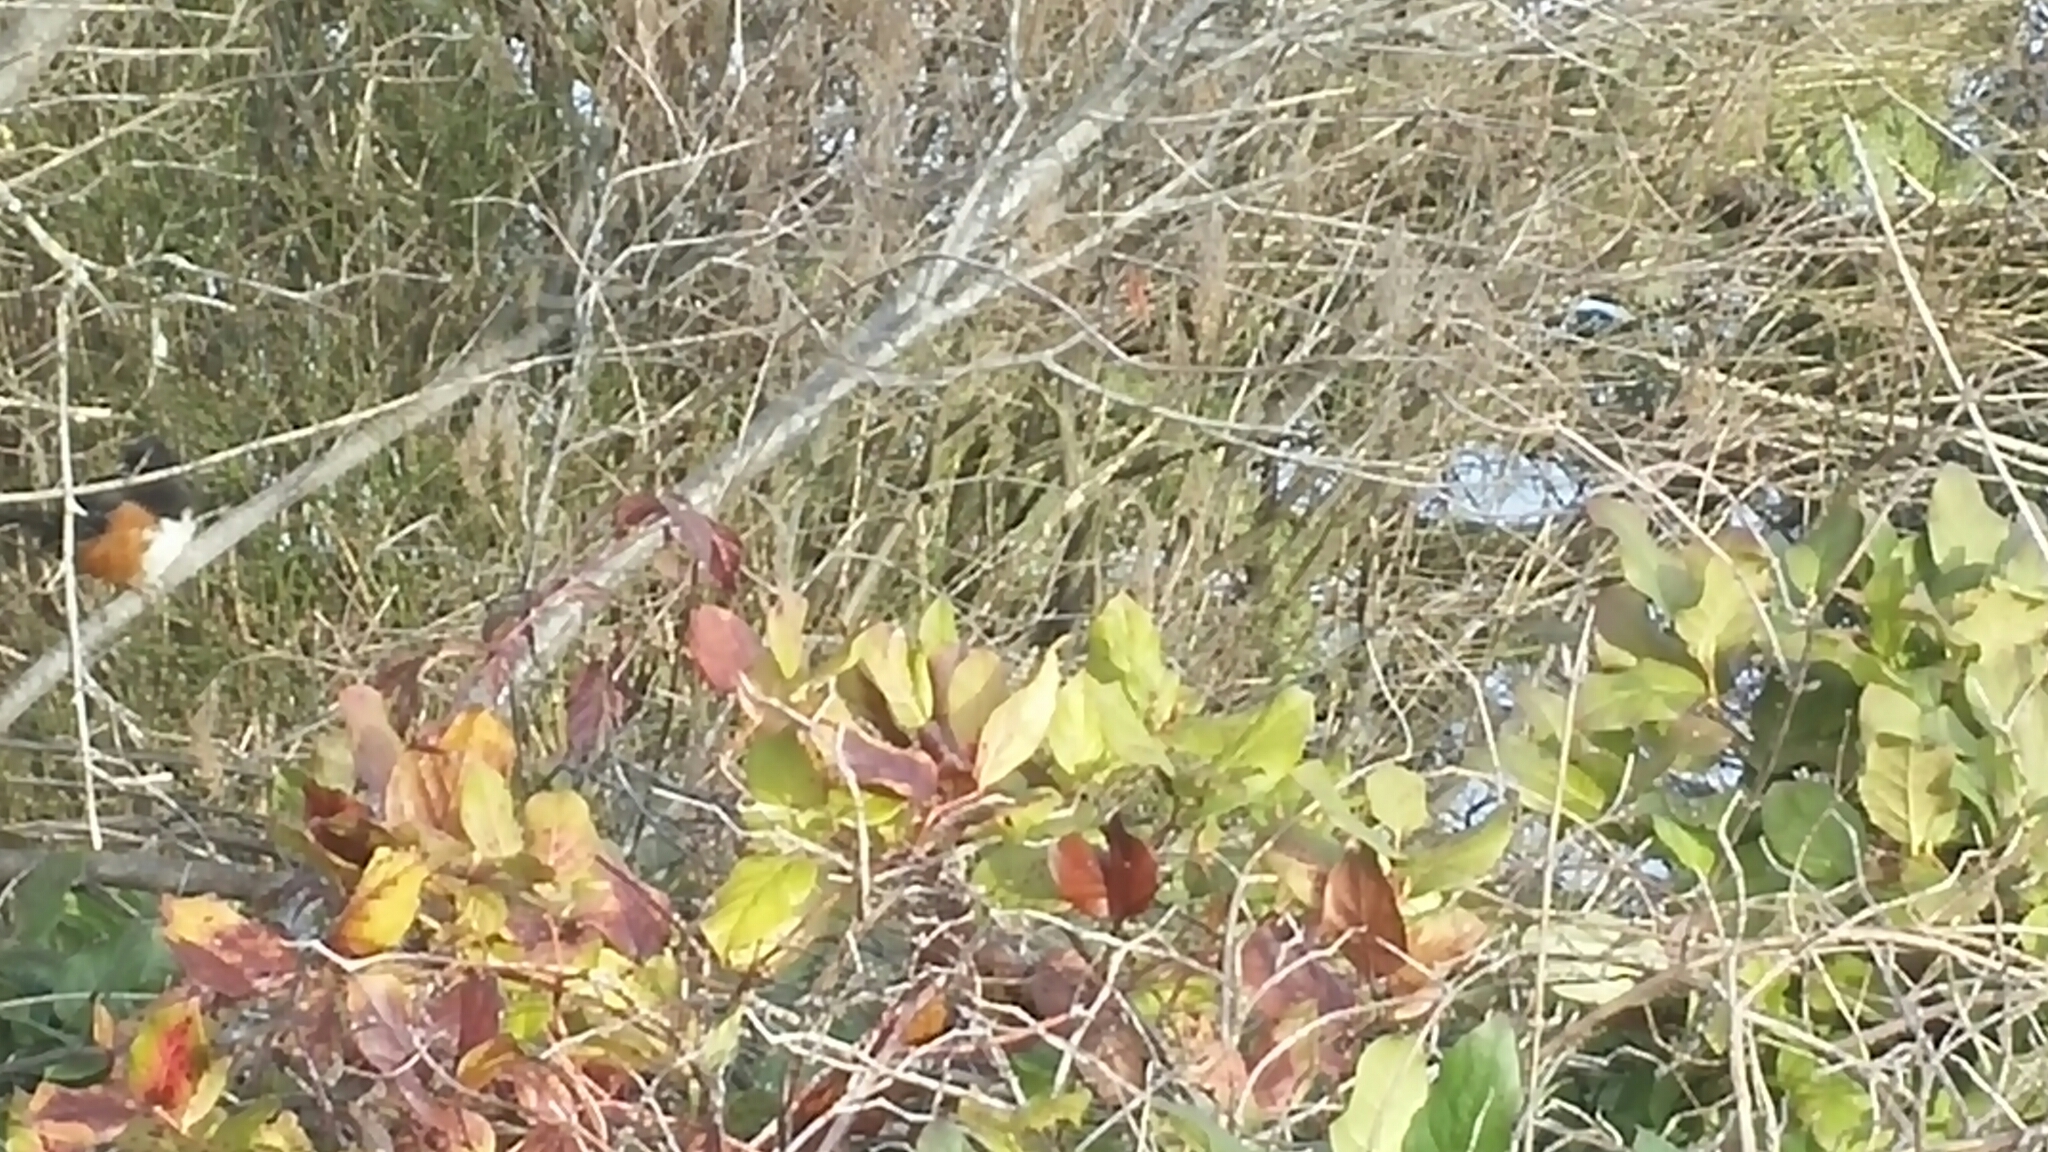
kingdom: Animalia
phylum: Chordata
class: Aves
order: Passeriformes
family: Passerellidae
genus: Pipilo
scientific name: Pipilo maculatus
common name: Spotted towhee
